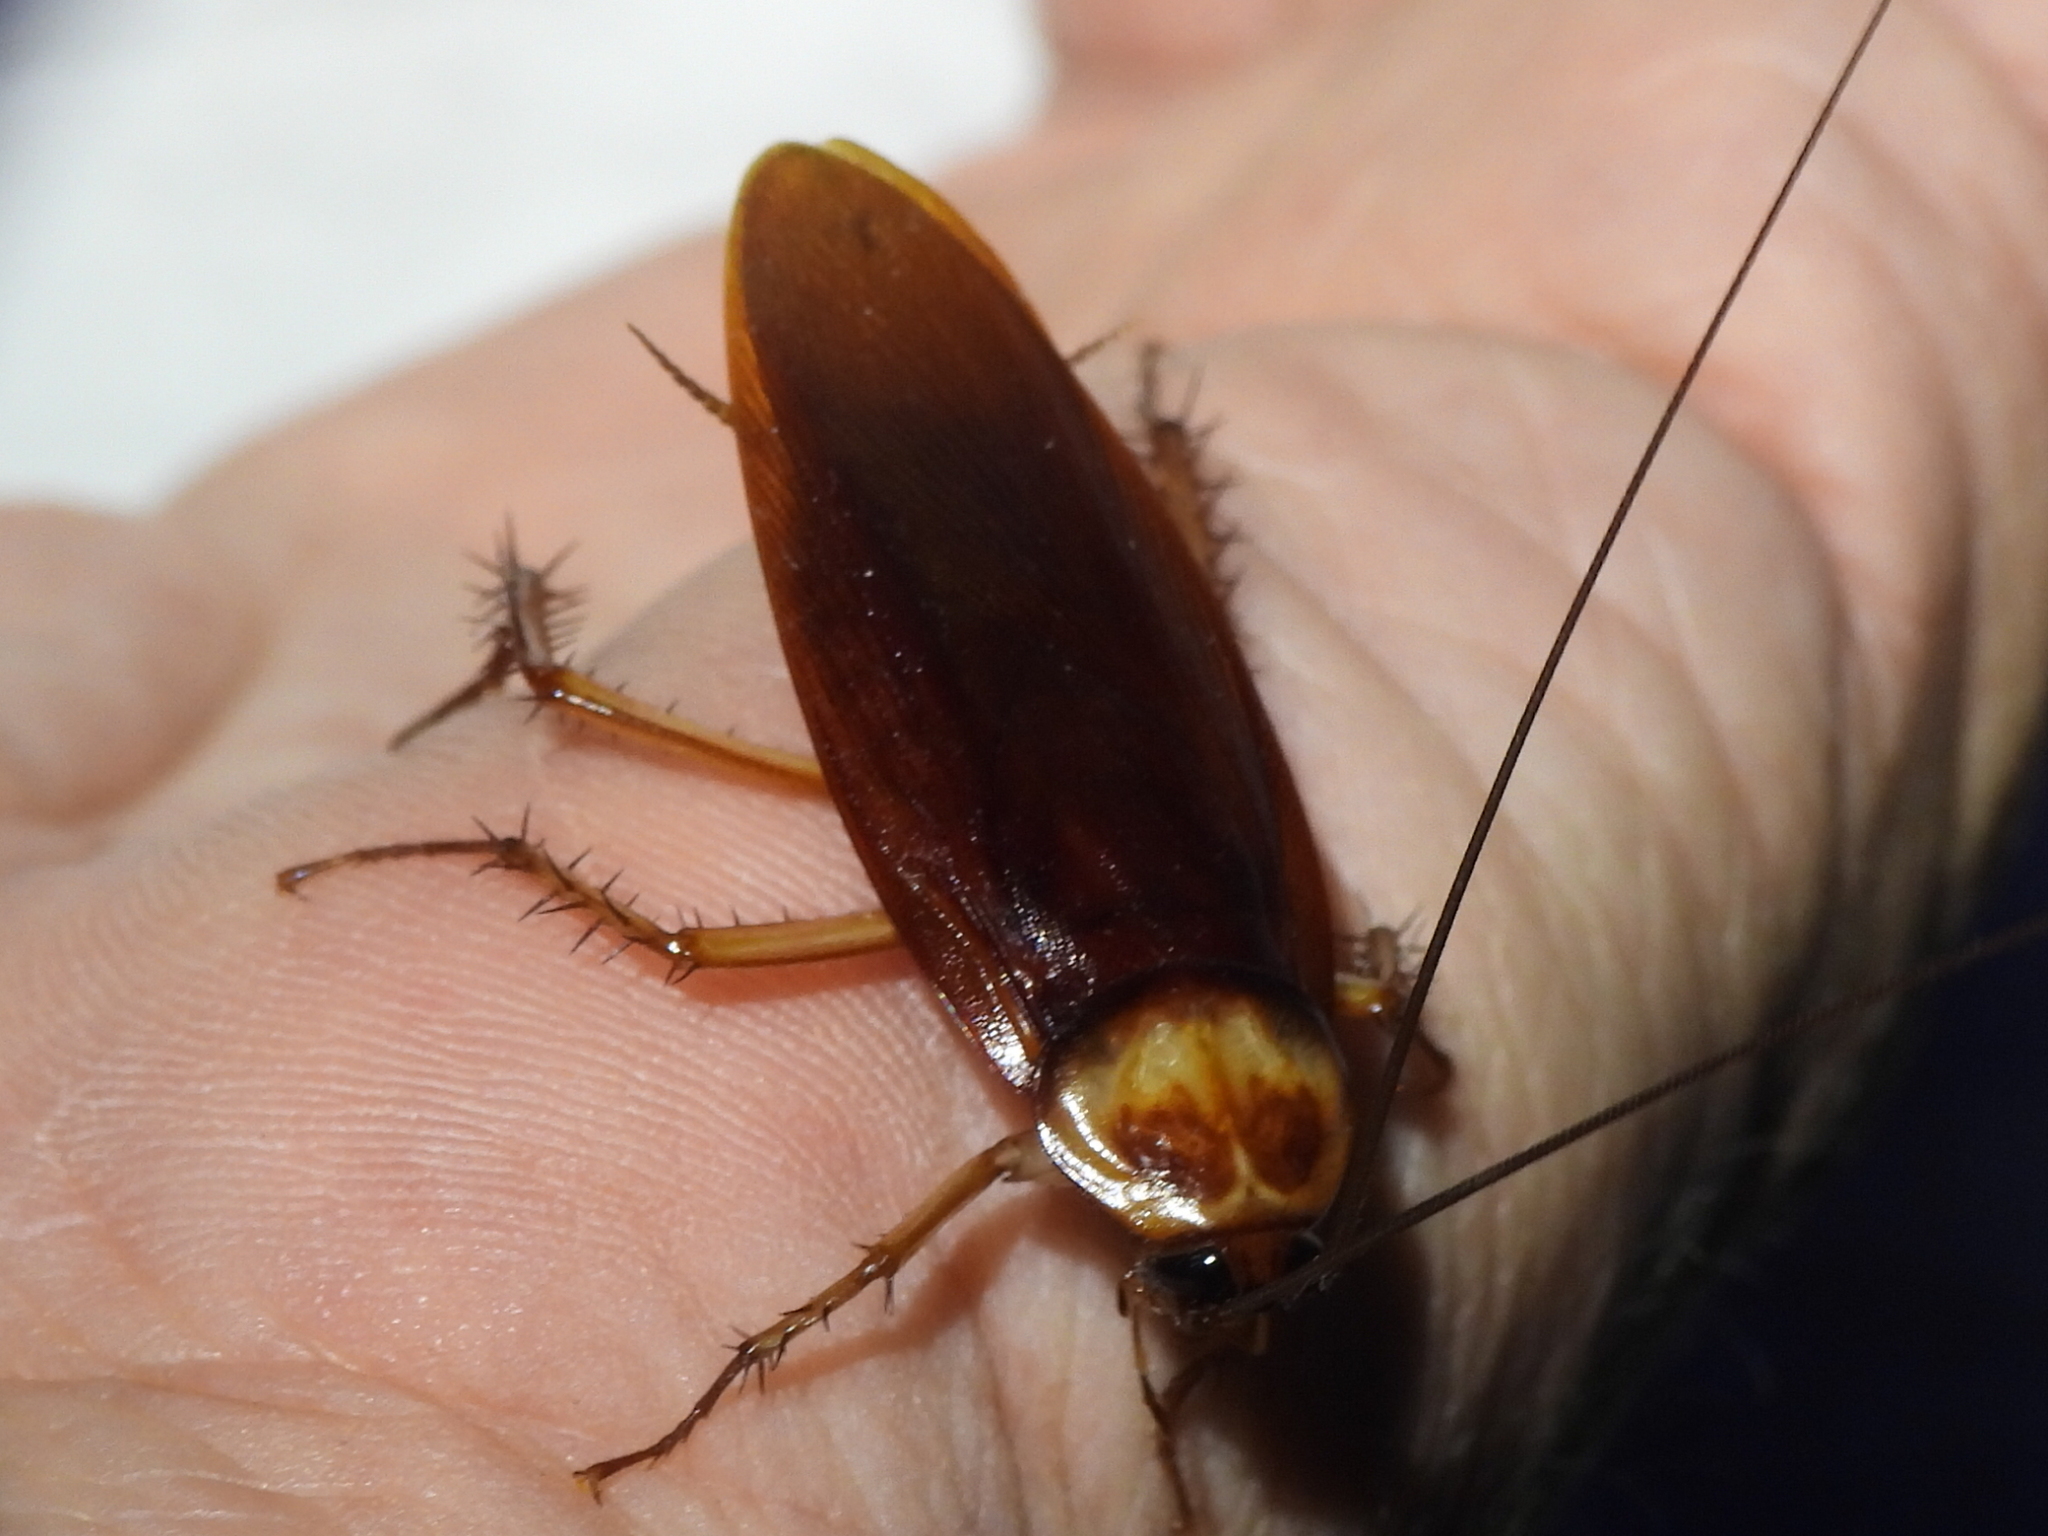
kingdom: Animalia
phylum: Arthropoda
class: Insecta
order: Blattodea
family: Blattidae
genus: Periplaneta
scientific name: Periplaneta americana
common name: American cockroach
